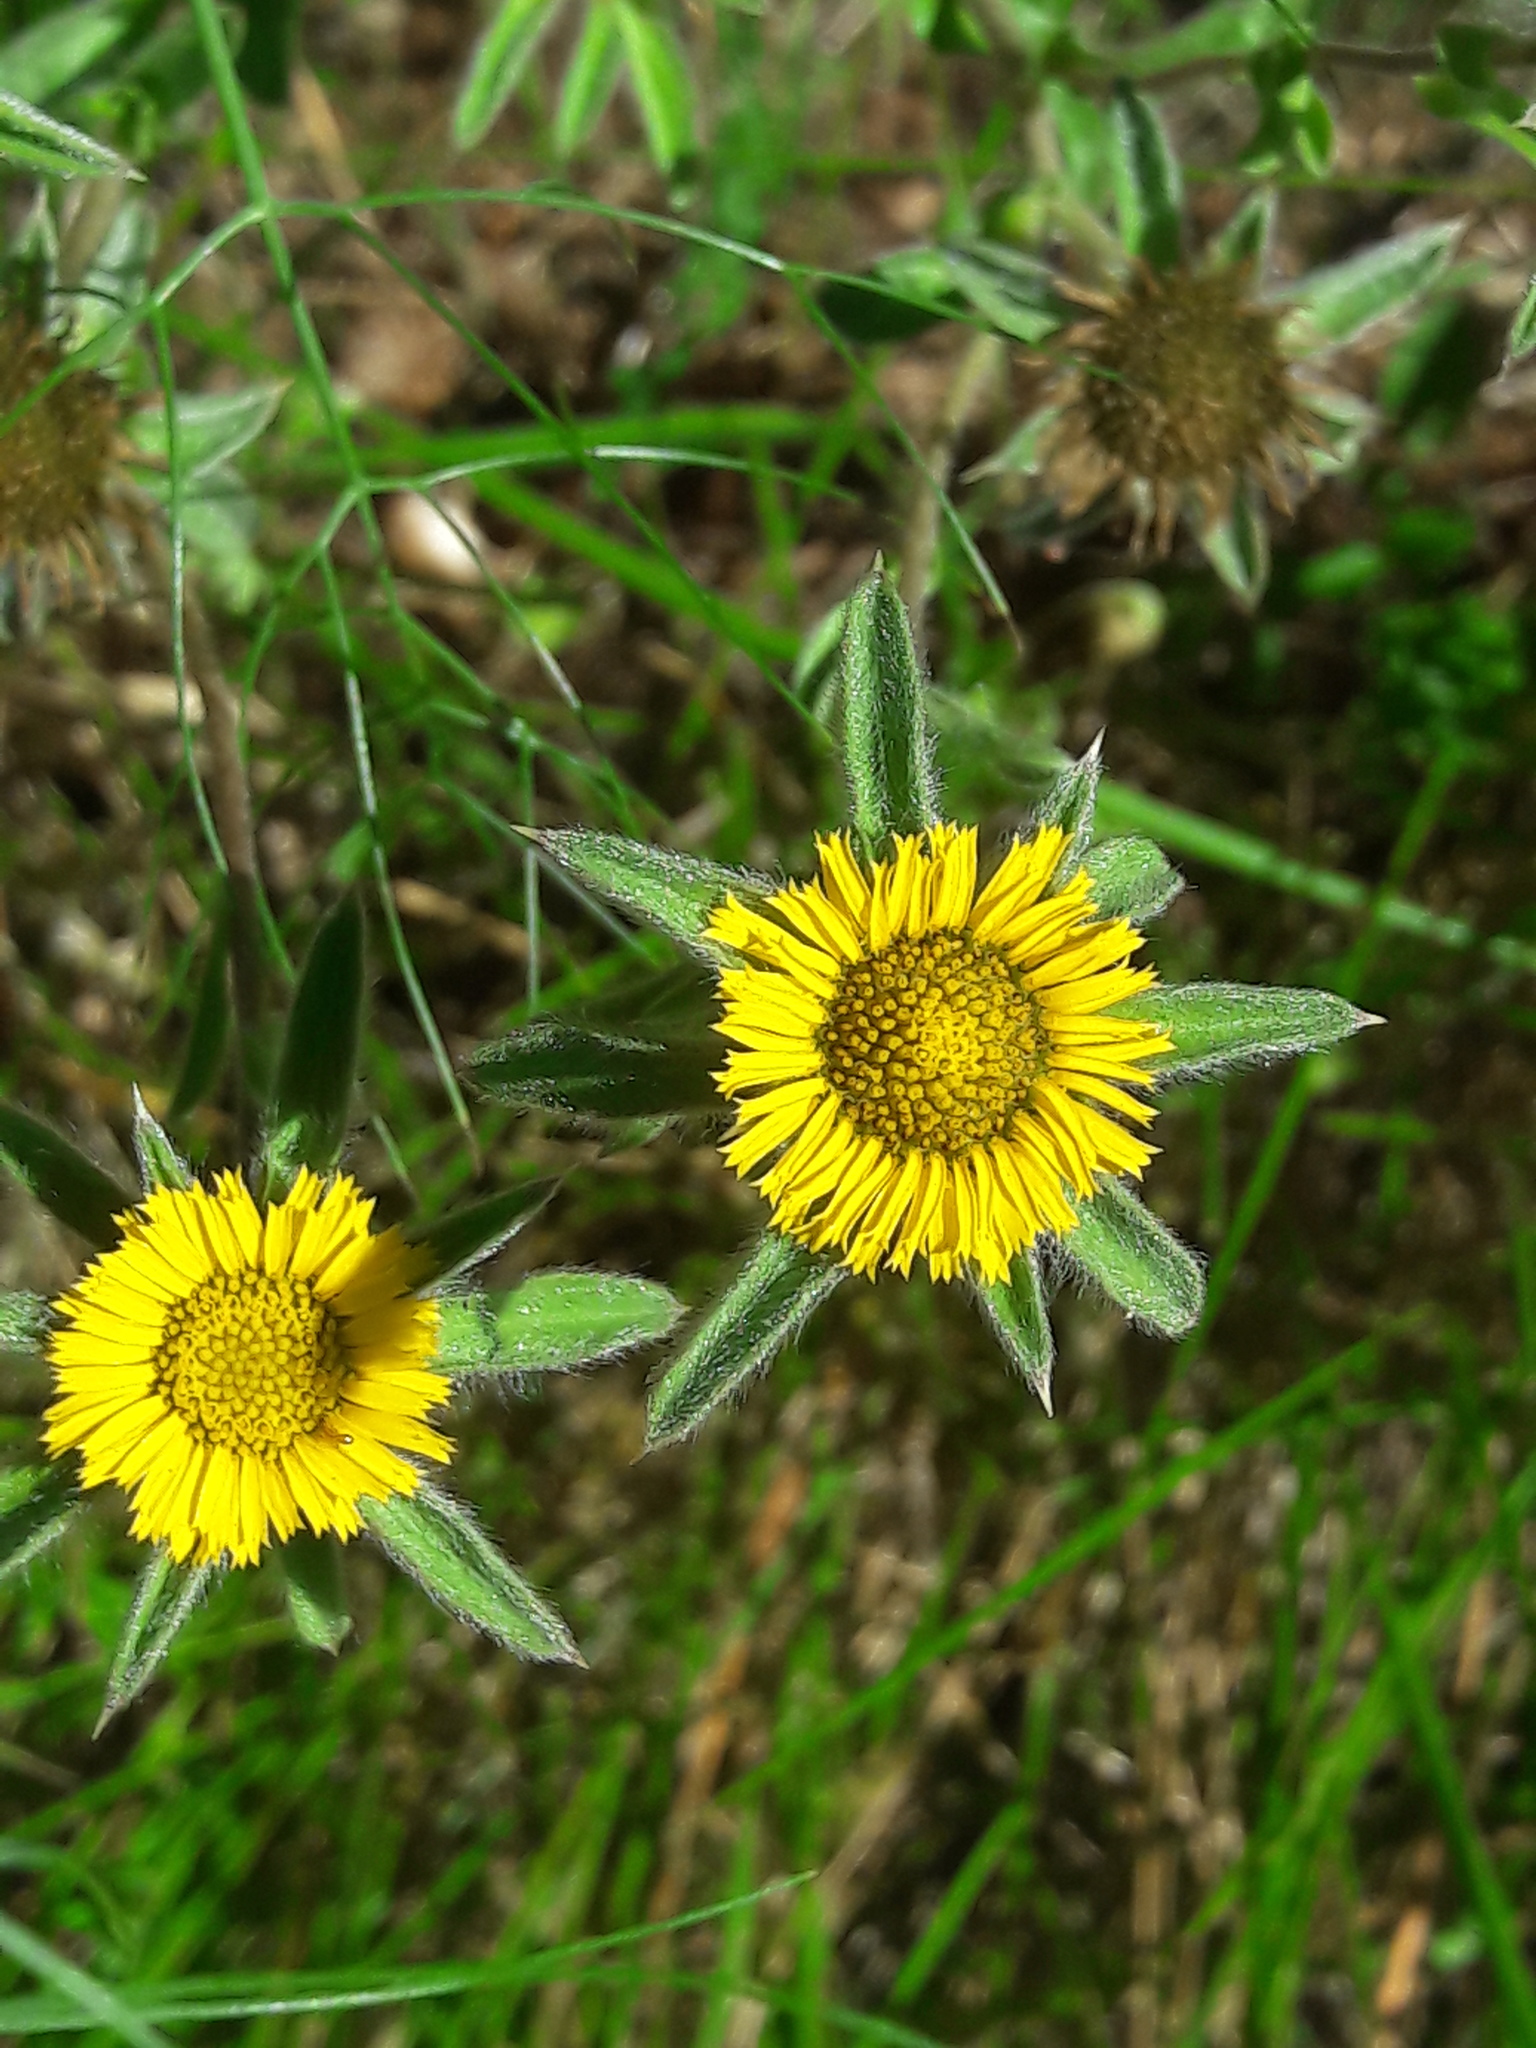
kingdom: Plantae
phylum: Tracheophyta
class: Magnoliopsida
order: Asterales
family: Asteraceae
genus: Pallenis
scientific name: Pallenis spinosa
